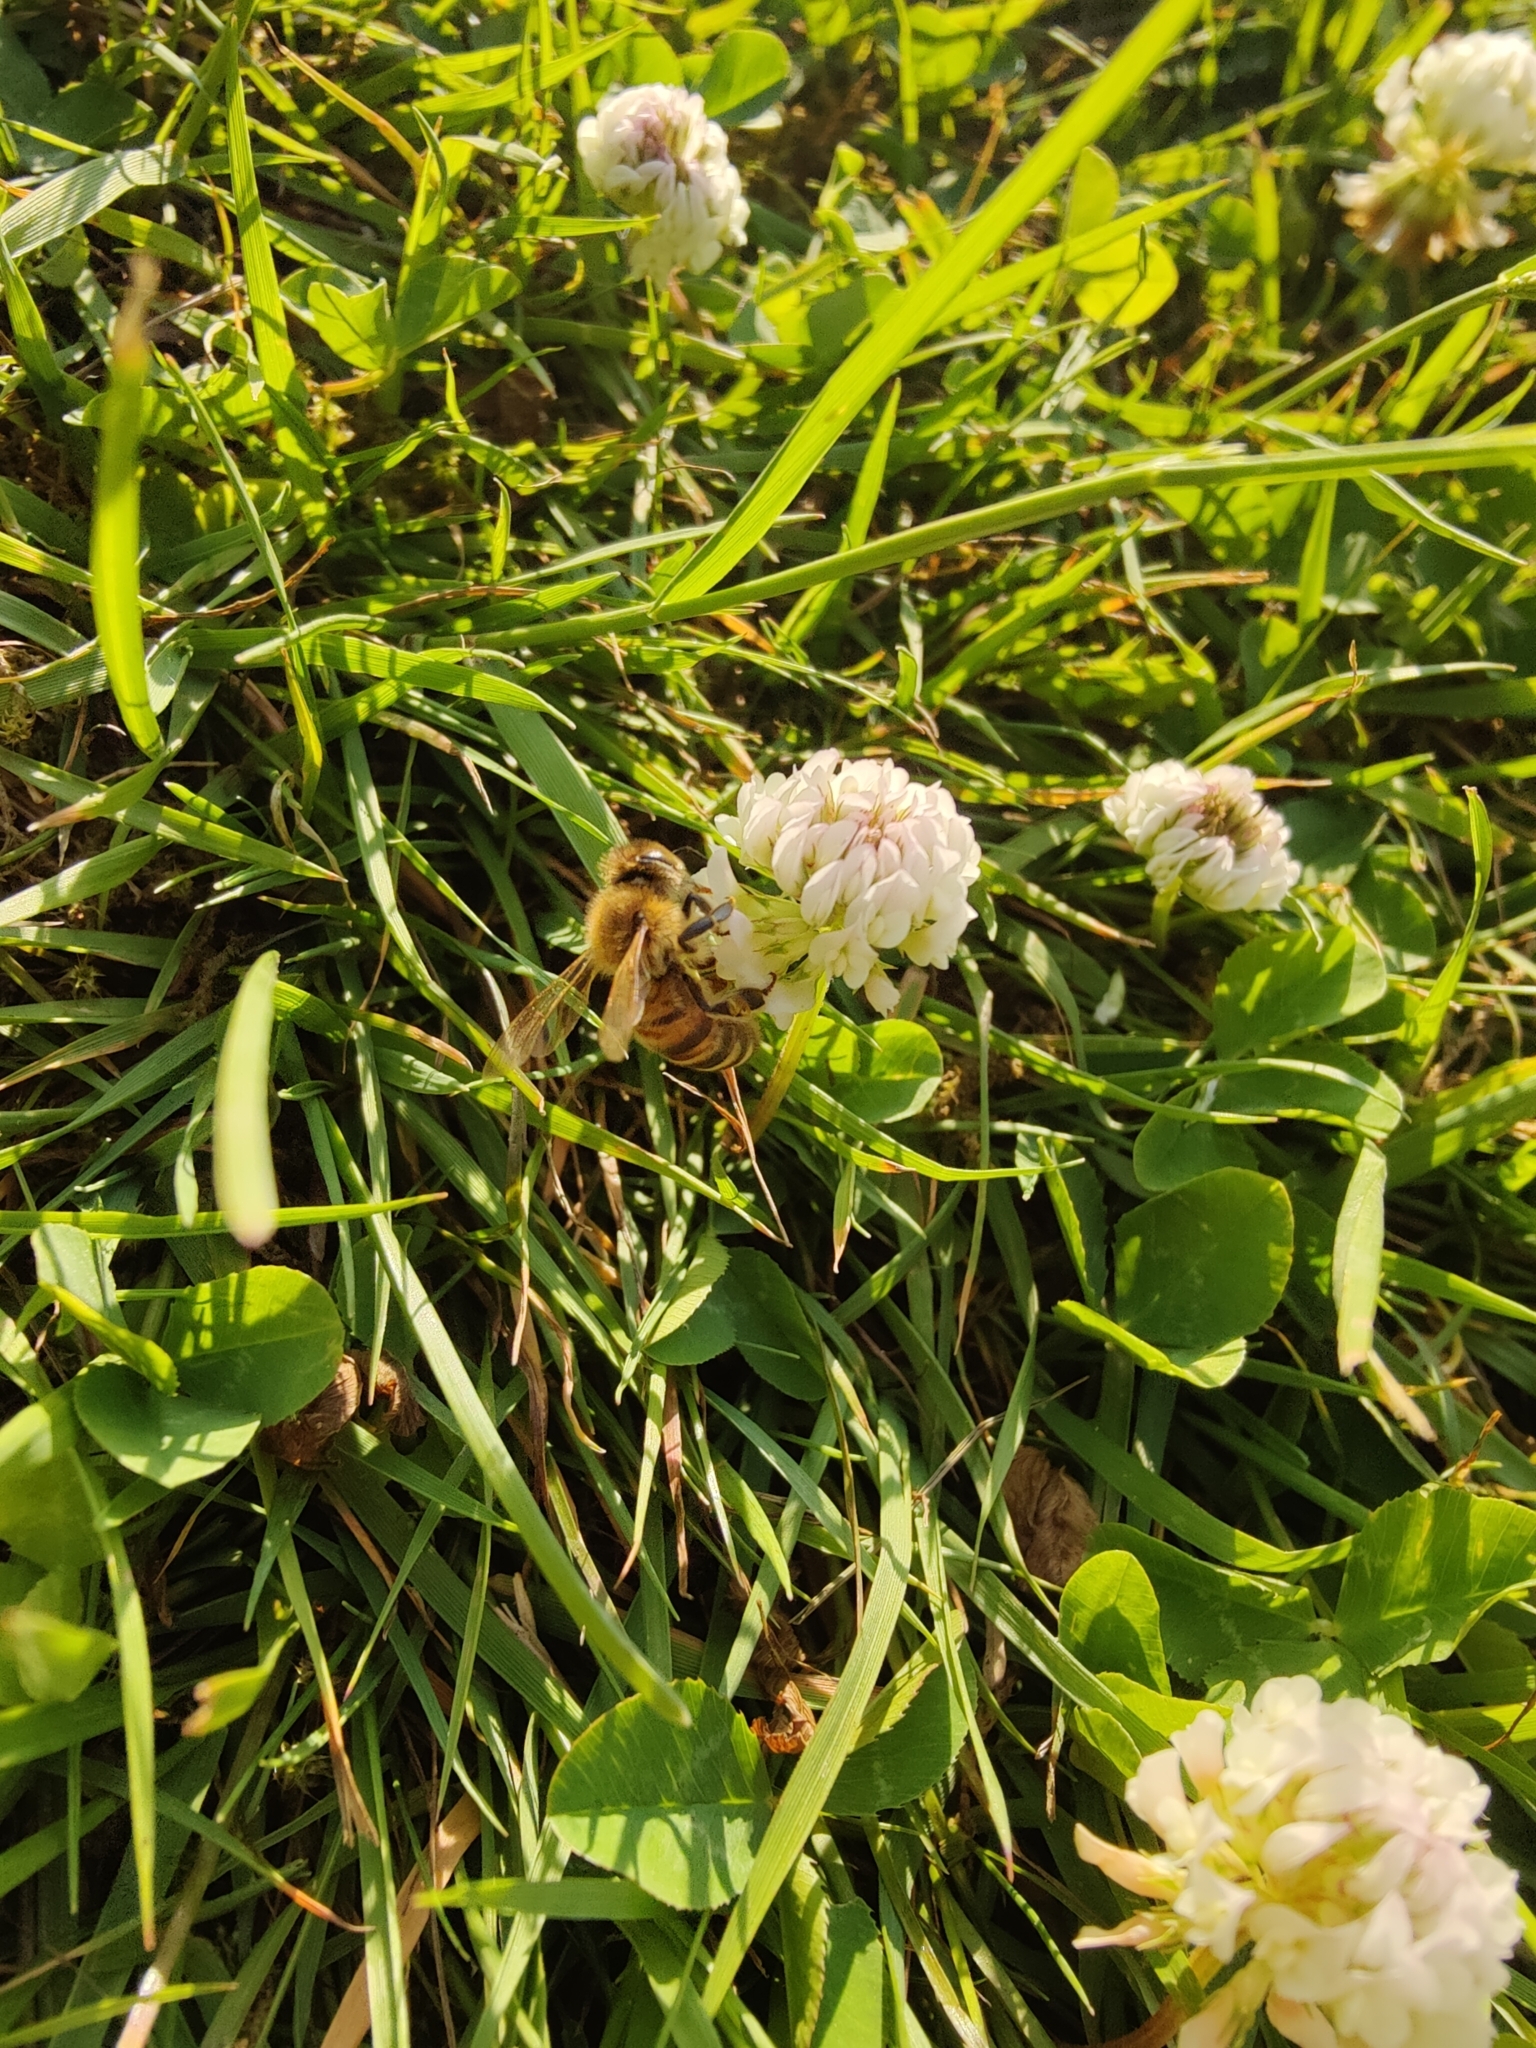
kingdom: Animalia
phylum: Arthropoda
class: Insecta
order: Hymenoptera
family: Apidae
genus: Apis
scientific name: Apis mellifera
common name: Honey bee
